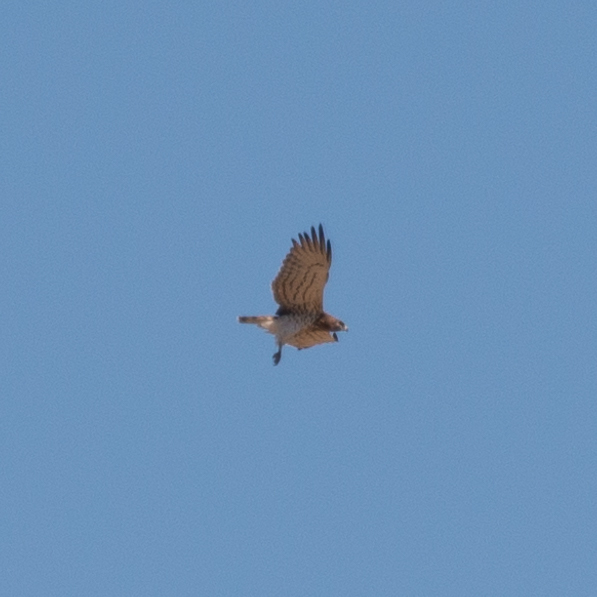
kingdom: Animalia
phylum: Chordata
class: Aves
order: Accipitriformes
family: Accipitridae
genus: Circaetus
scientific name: Circaetus gallicus
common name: Short-toed snake eagle
